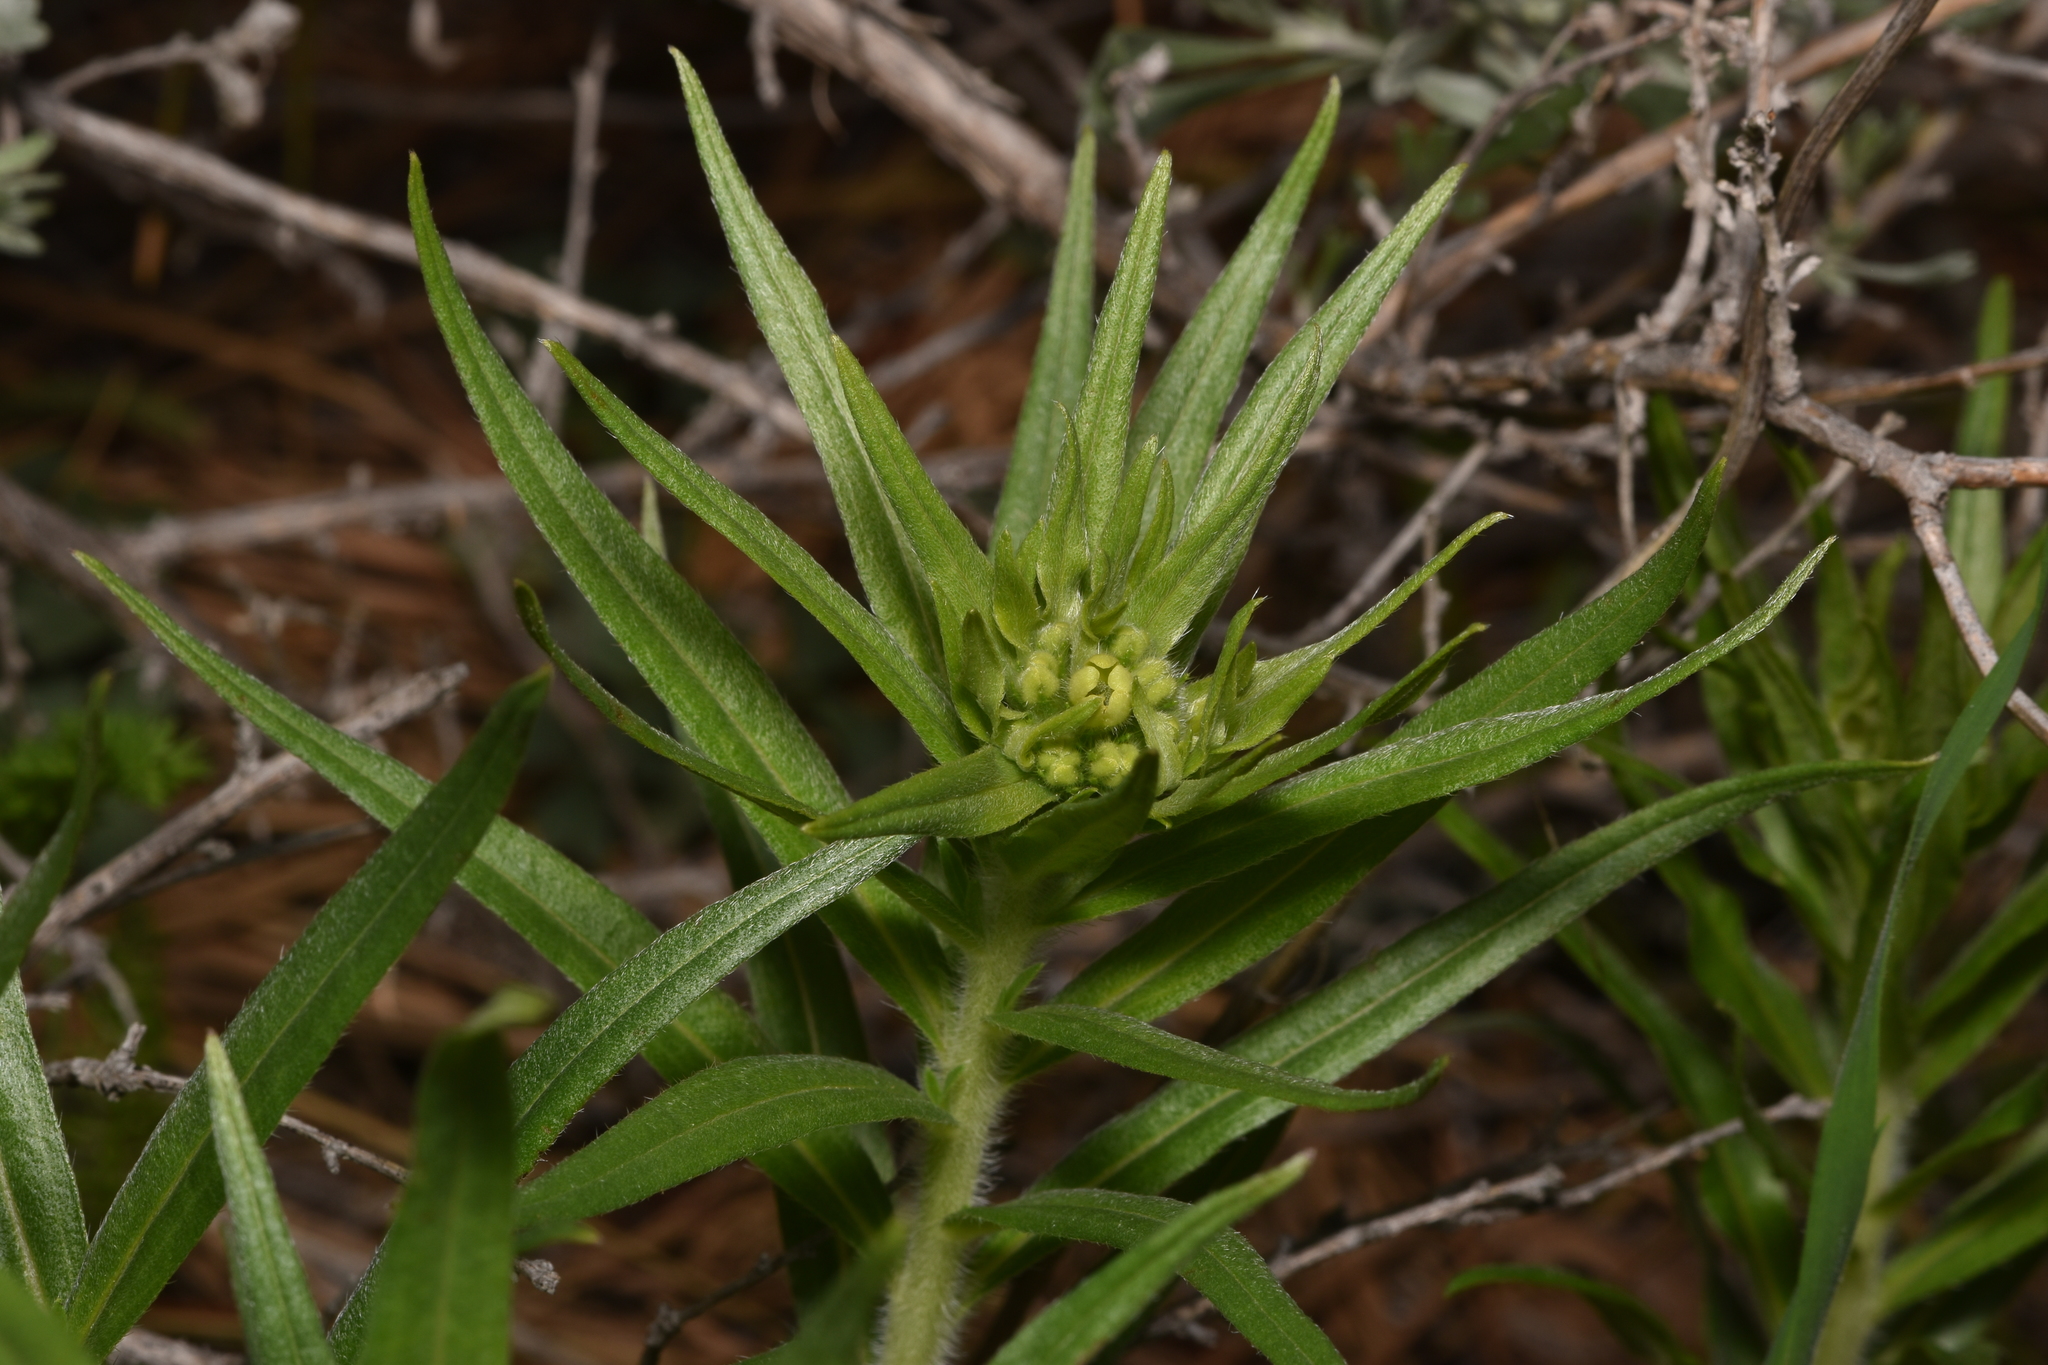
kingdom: Plantae
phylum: Tracheophyta
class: Magnoliopsida
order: Boraginales
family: Boraginaceae
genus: Lithospermum
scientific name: Lithospermum ruderale
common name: Western gromwell
